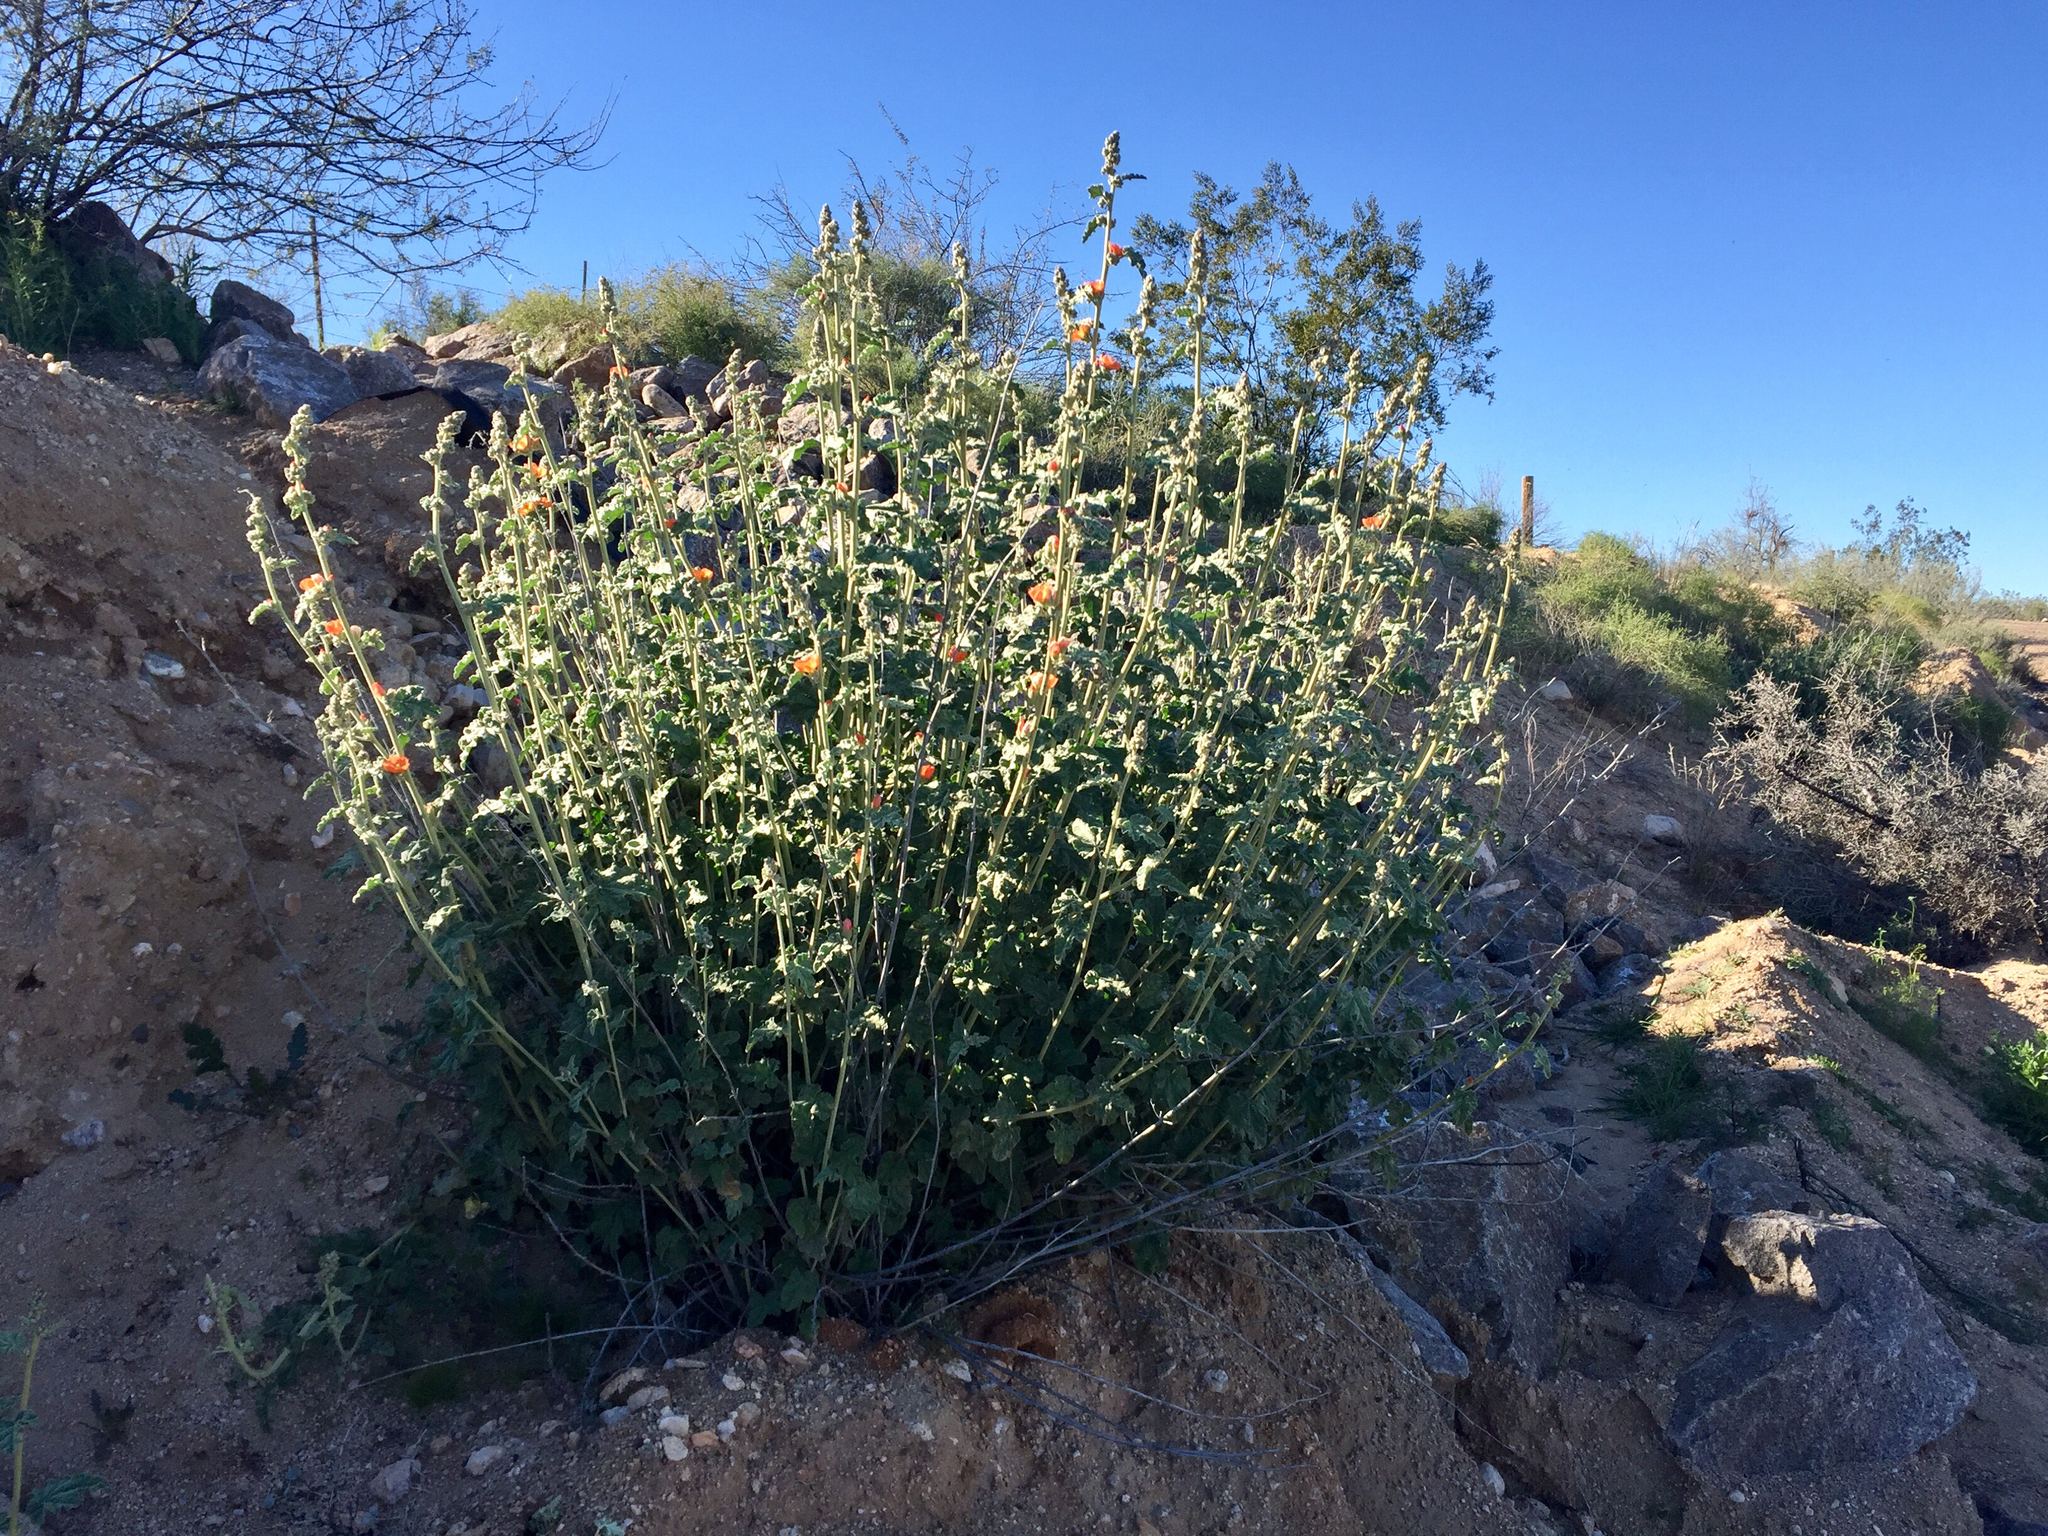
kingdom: Plantae
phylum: Tracheophyta
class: Magnoliopsida
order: Malvales
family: Malvaceae
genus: Sphaeralcea
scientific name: Sphaeralcea ambigua
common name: Apricot globe-mallow
